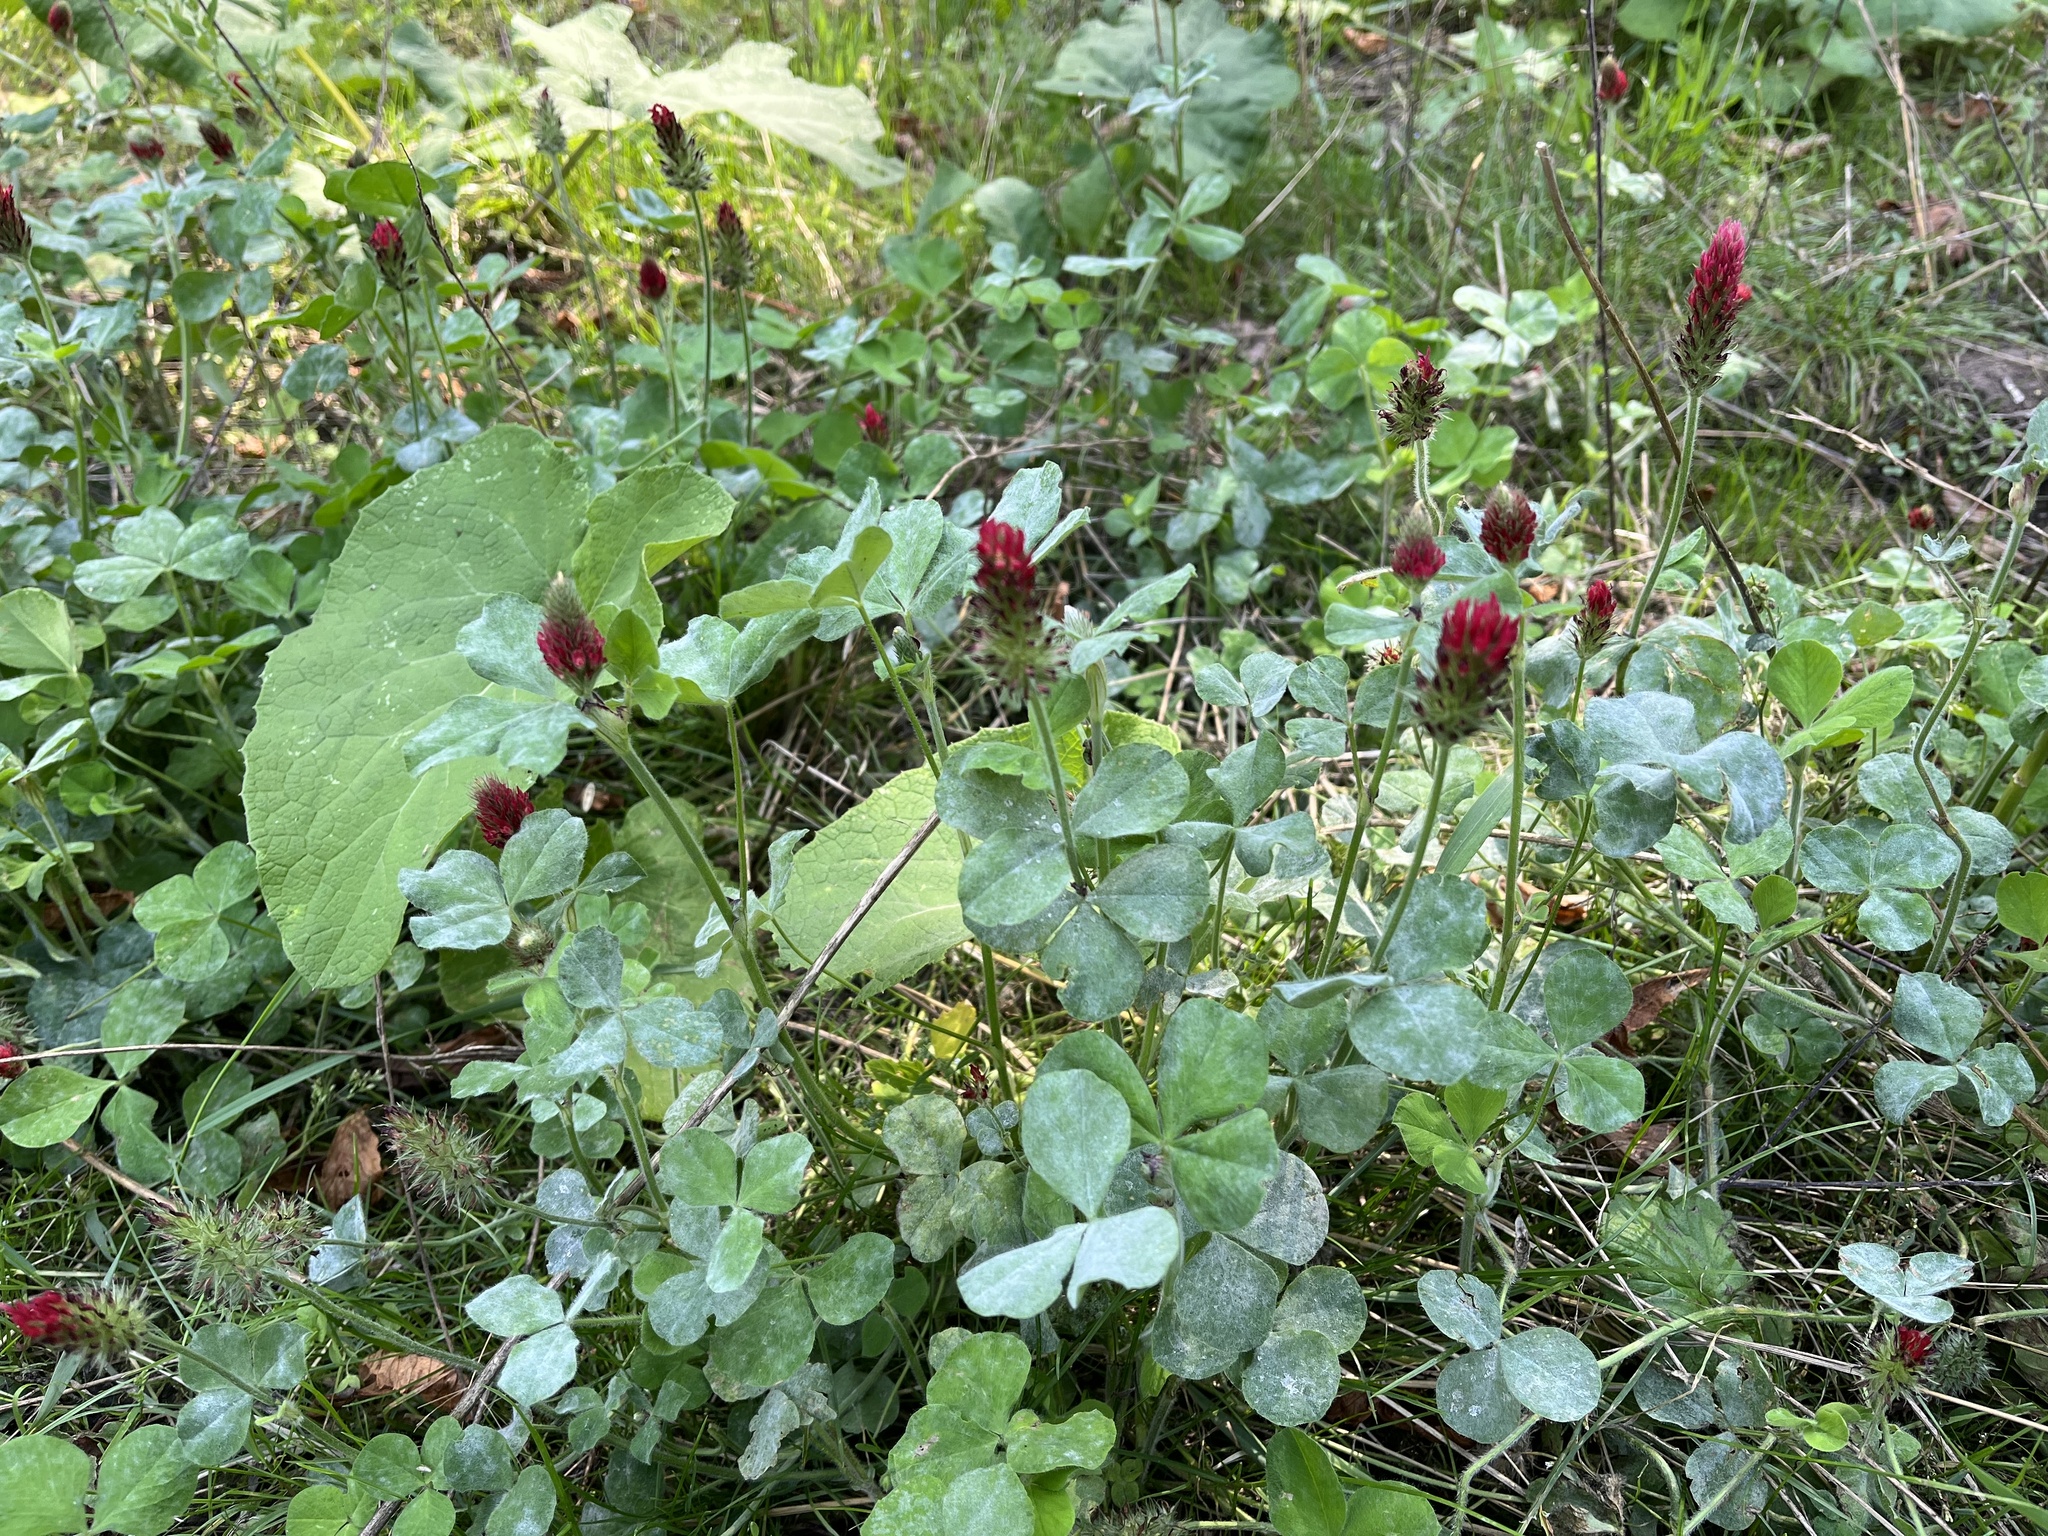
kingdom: Plantae
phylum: Tracheophyta
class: Magnoliopsida
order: Fabales
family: Fabaceae
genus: Trifolium
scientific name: Trifolium incarnatum
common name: Crimson clover
